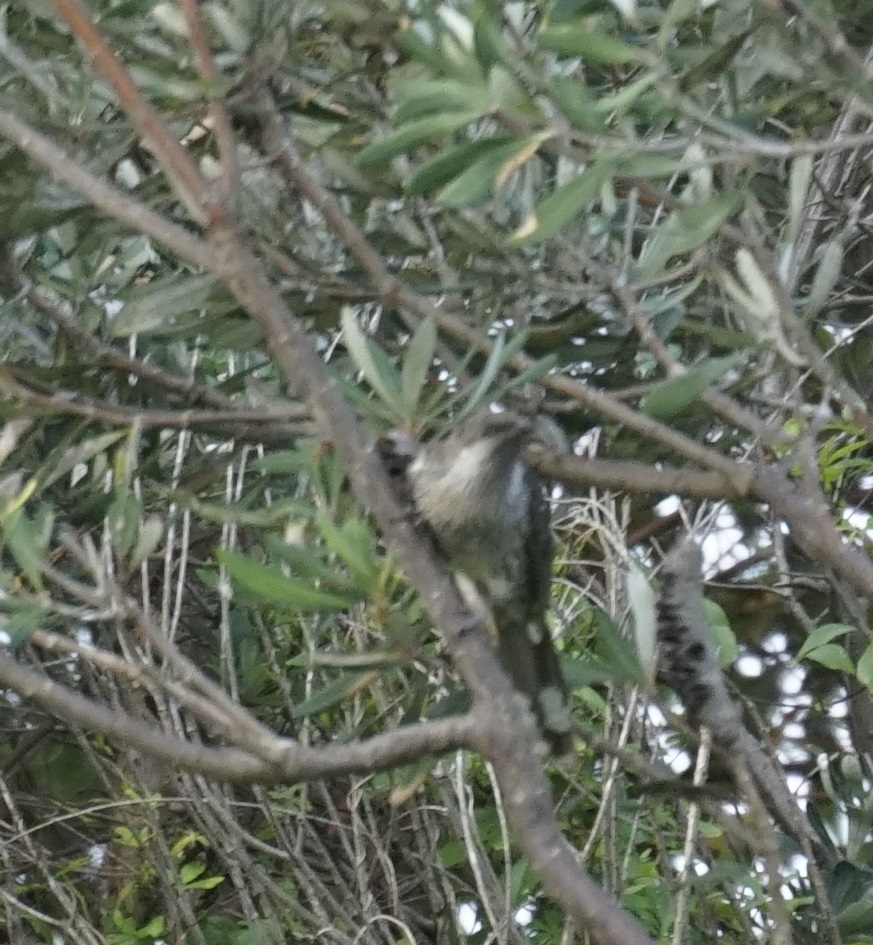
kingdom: Animalia
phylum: Chordata
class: Aves
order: Passeriformes
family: Meliphagidae
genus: Anthochaera
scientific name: Anthochaera chrysoptera
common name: Little wattlebird
